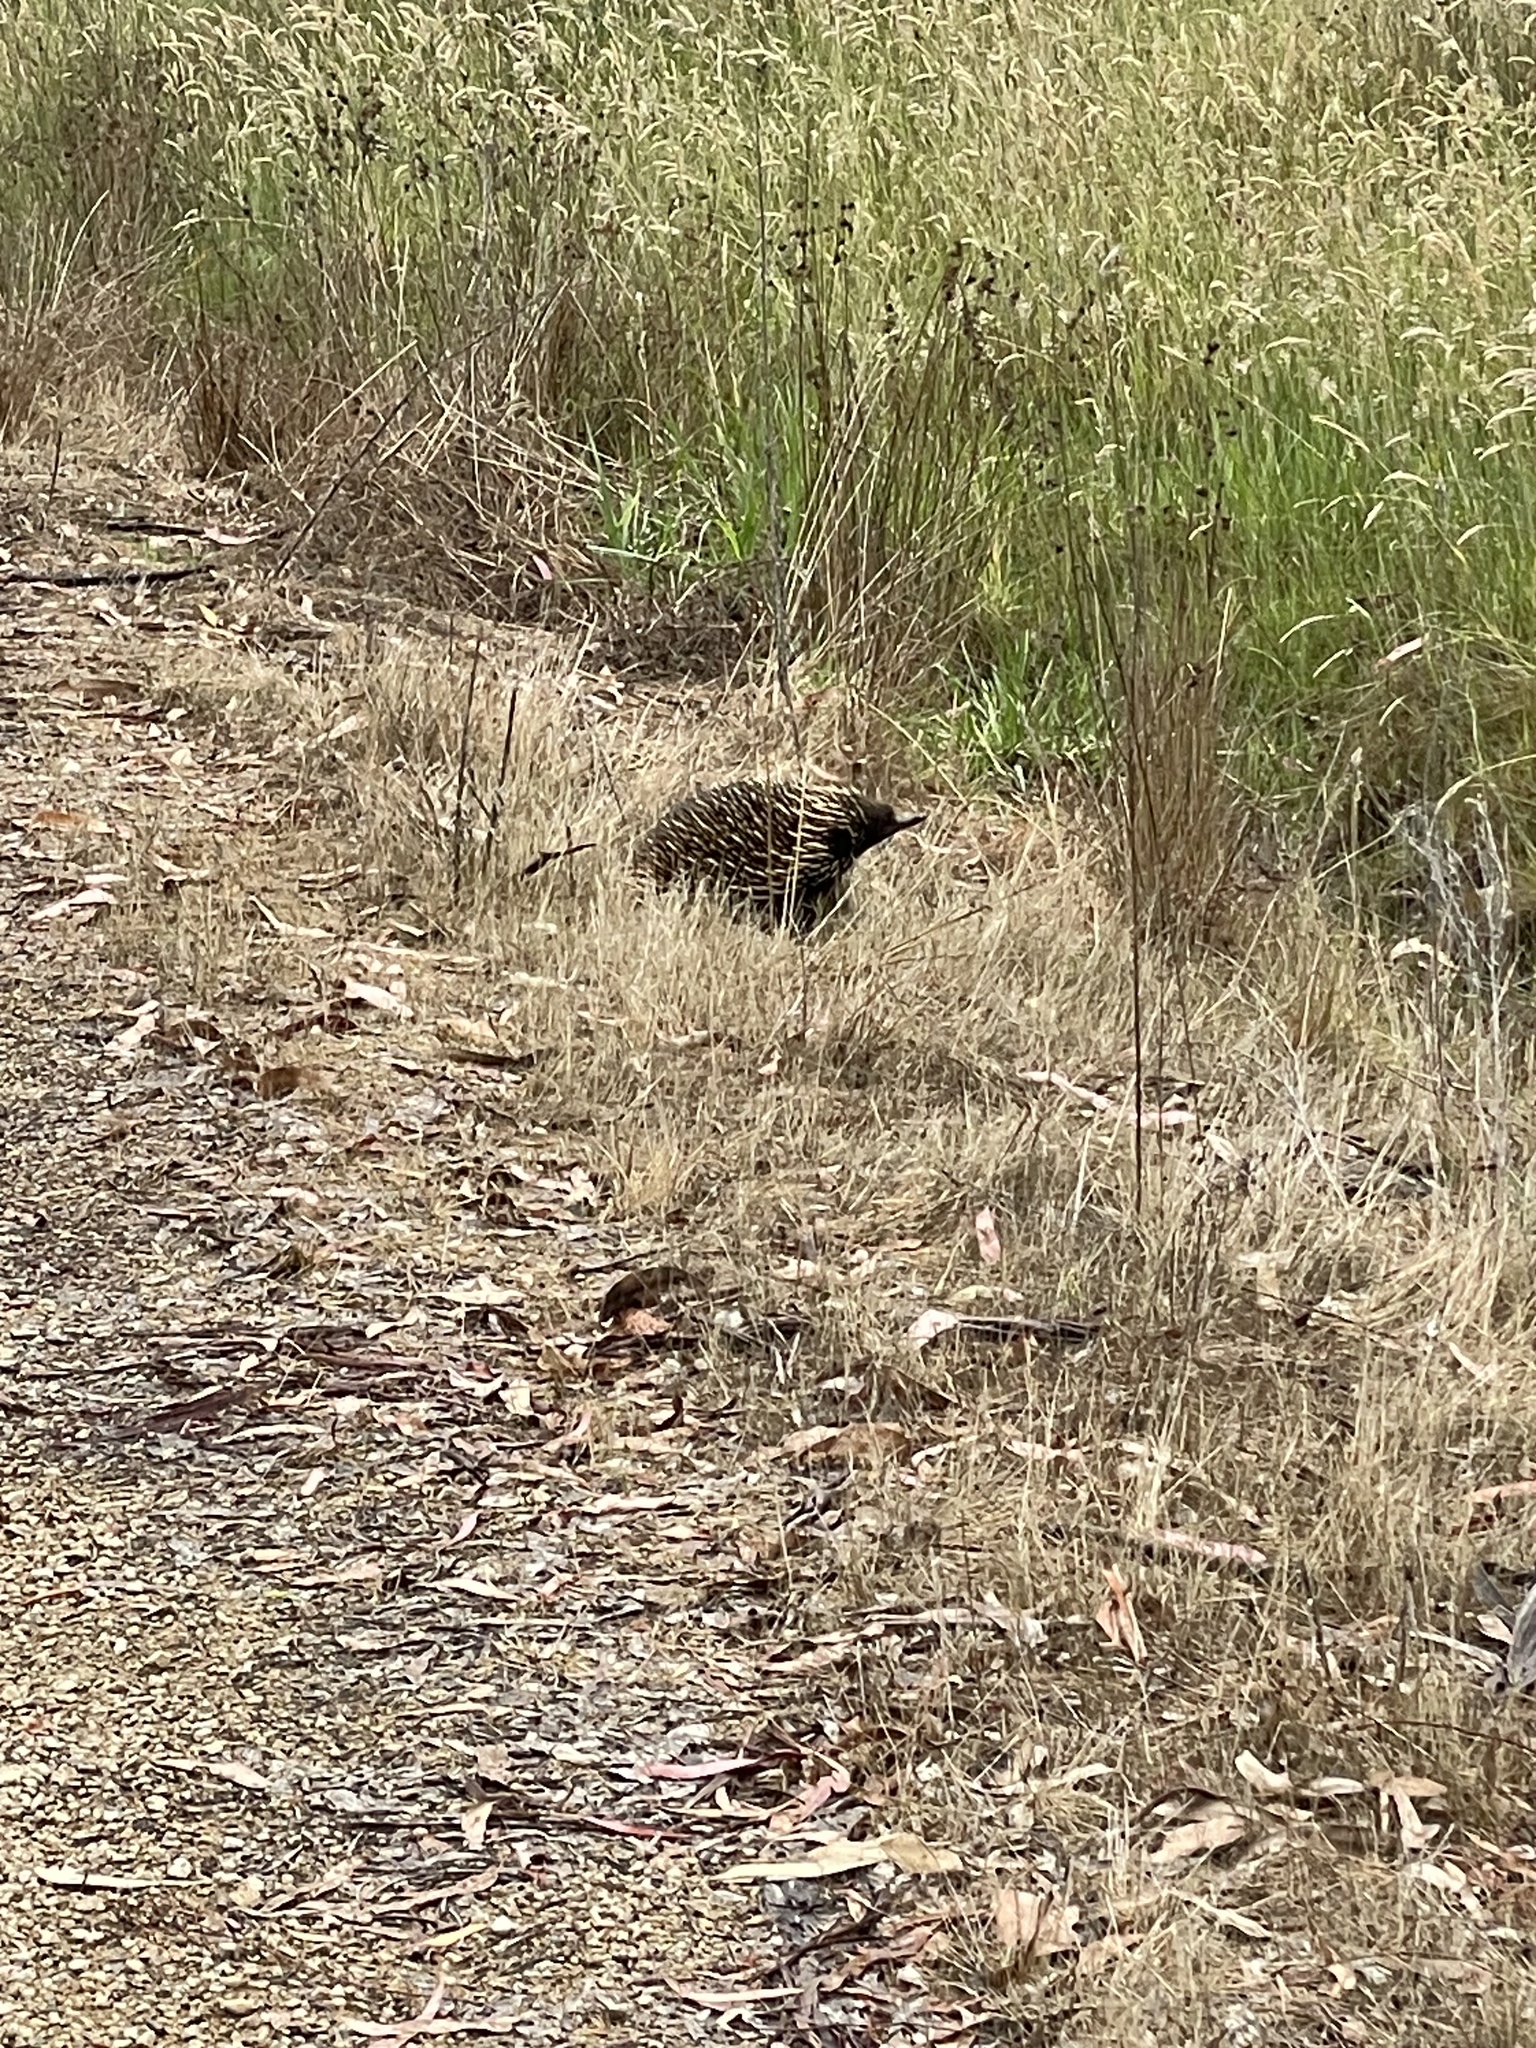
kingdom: Animalia
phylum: Chordata
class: Mammalia
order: Monotremata
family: Tachyglossidae
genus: Tachyglossus
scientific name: Tachyglossus aculeatus
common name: Short-beaked echidna
